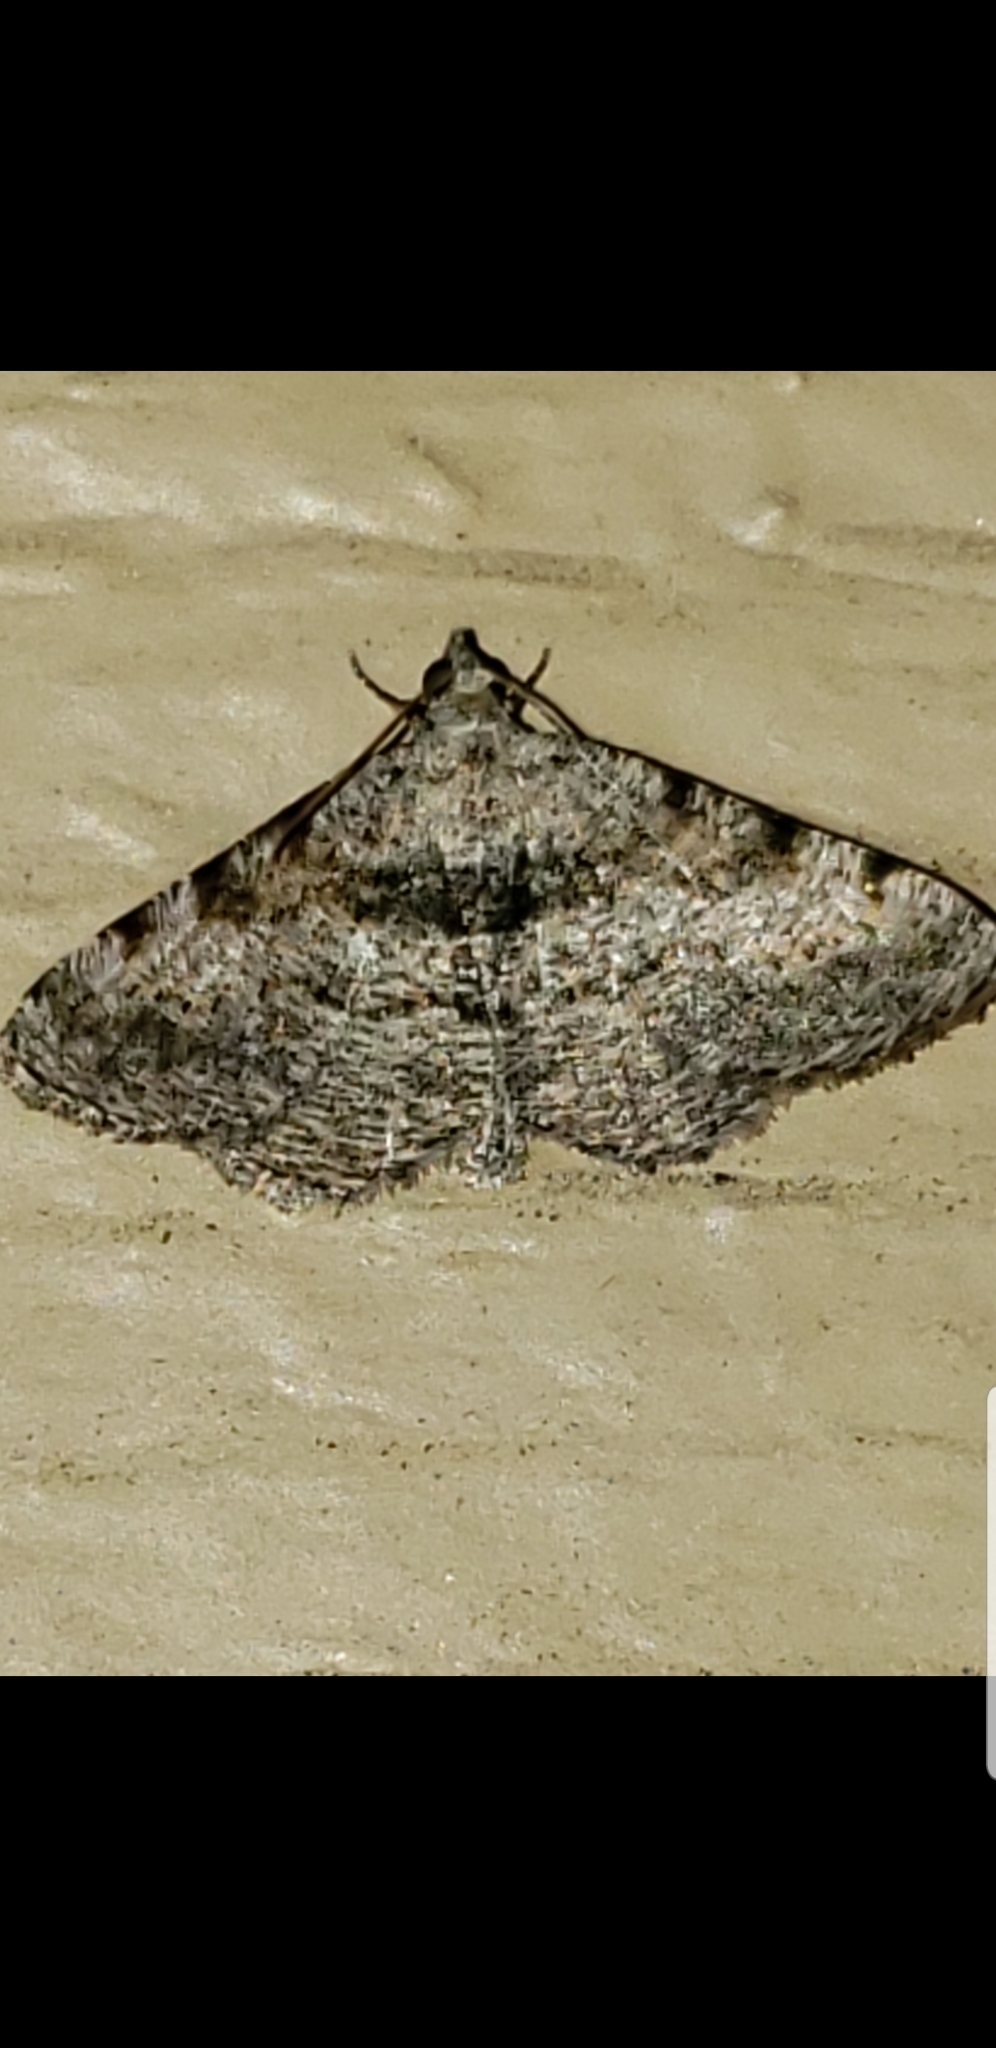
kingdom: Animalia
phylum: Arthropoda
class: Insecta
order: Lepidoptera
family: Geometridae
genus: Digrammia
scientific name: Digrammia gnophosaria
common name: Hollow-spotted angle
